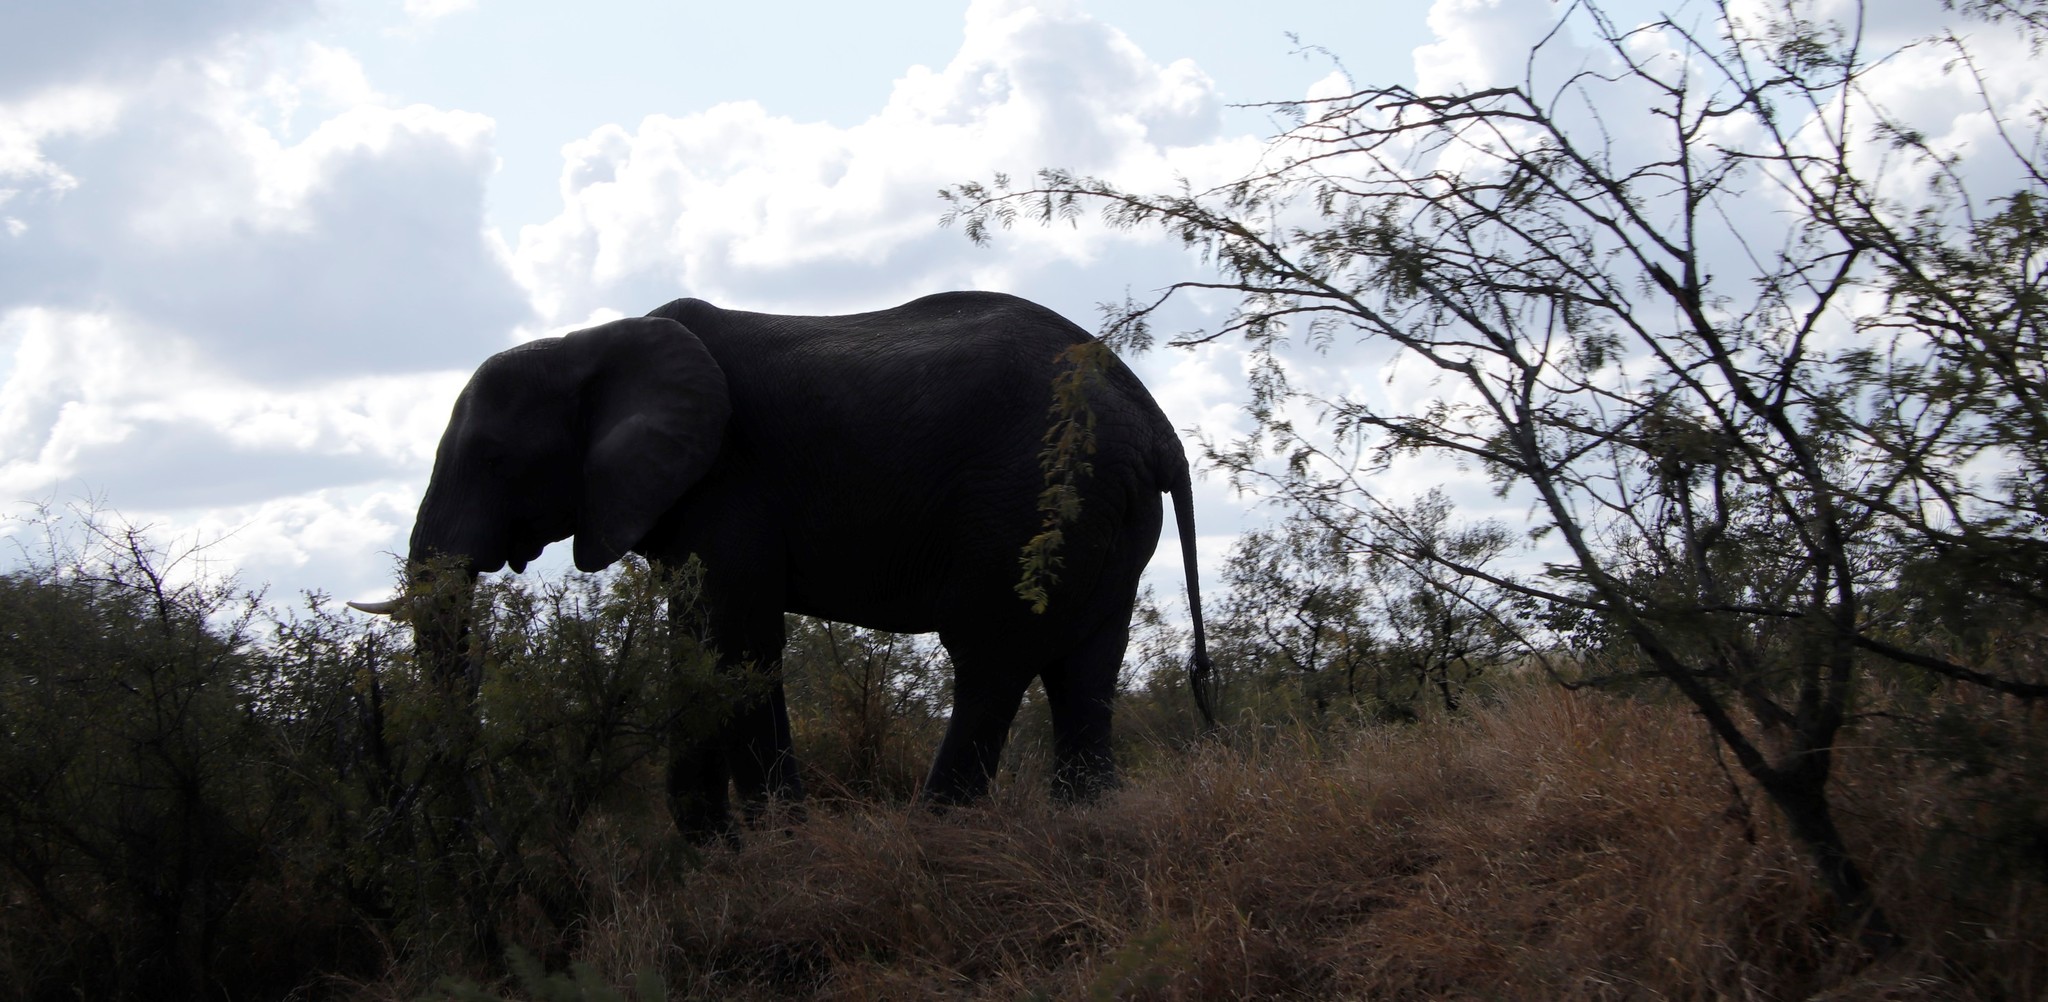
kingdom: Animalia
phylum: Chordata
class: Mammalia
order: Proboscidea
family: Elephantidae
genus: Loxodonta
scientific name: Loxodonta africana
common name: African elephant
